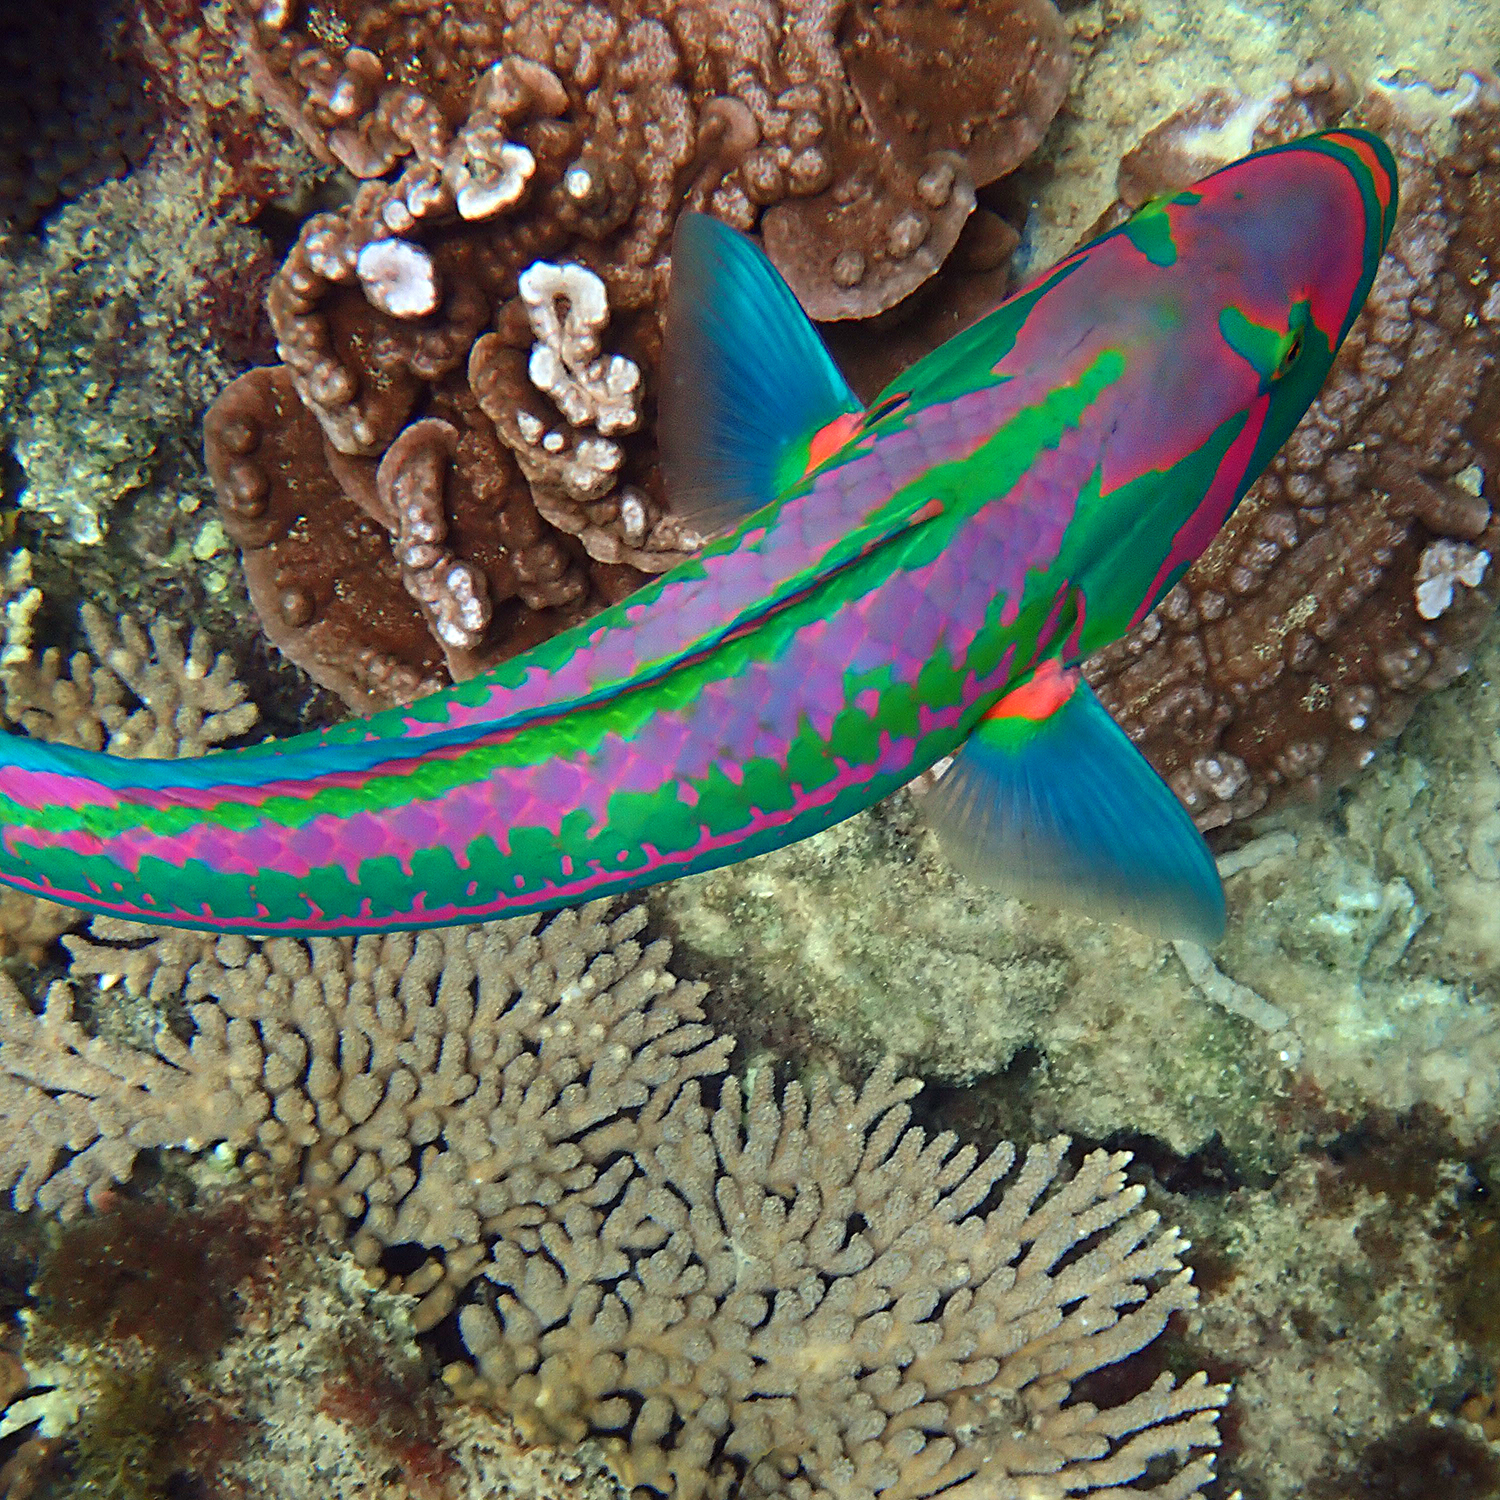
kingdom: Animalia
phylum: Chordata
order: Perciformes
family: Labridae
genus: Thalassoma
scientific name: Thalassoma purpureum
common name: Parrotfish
